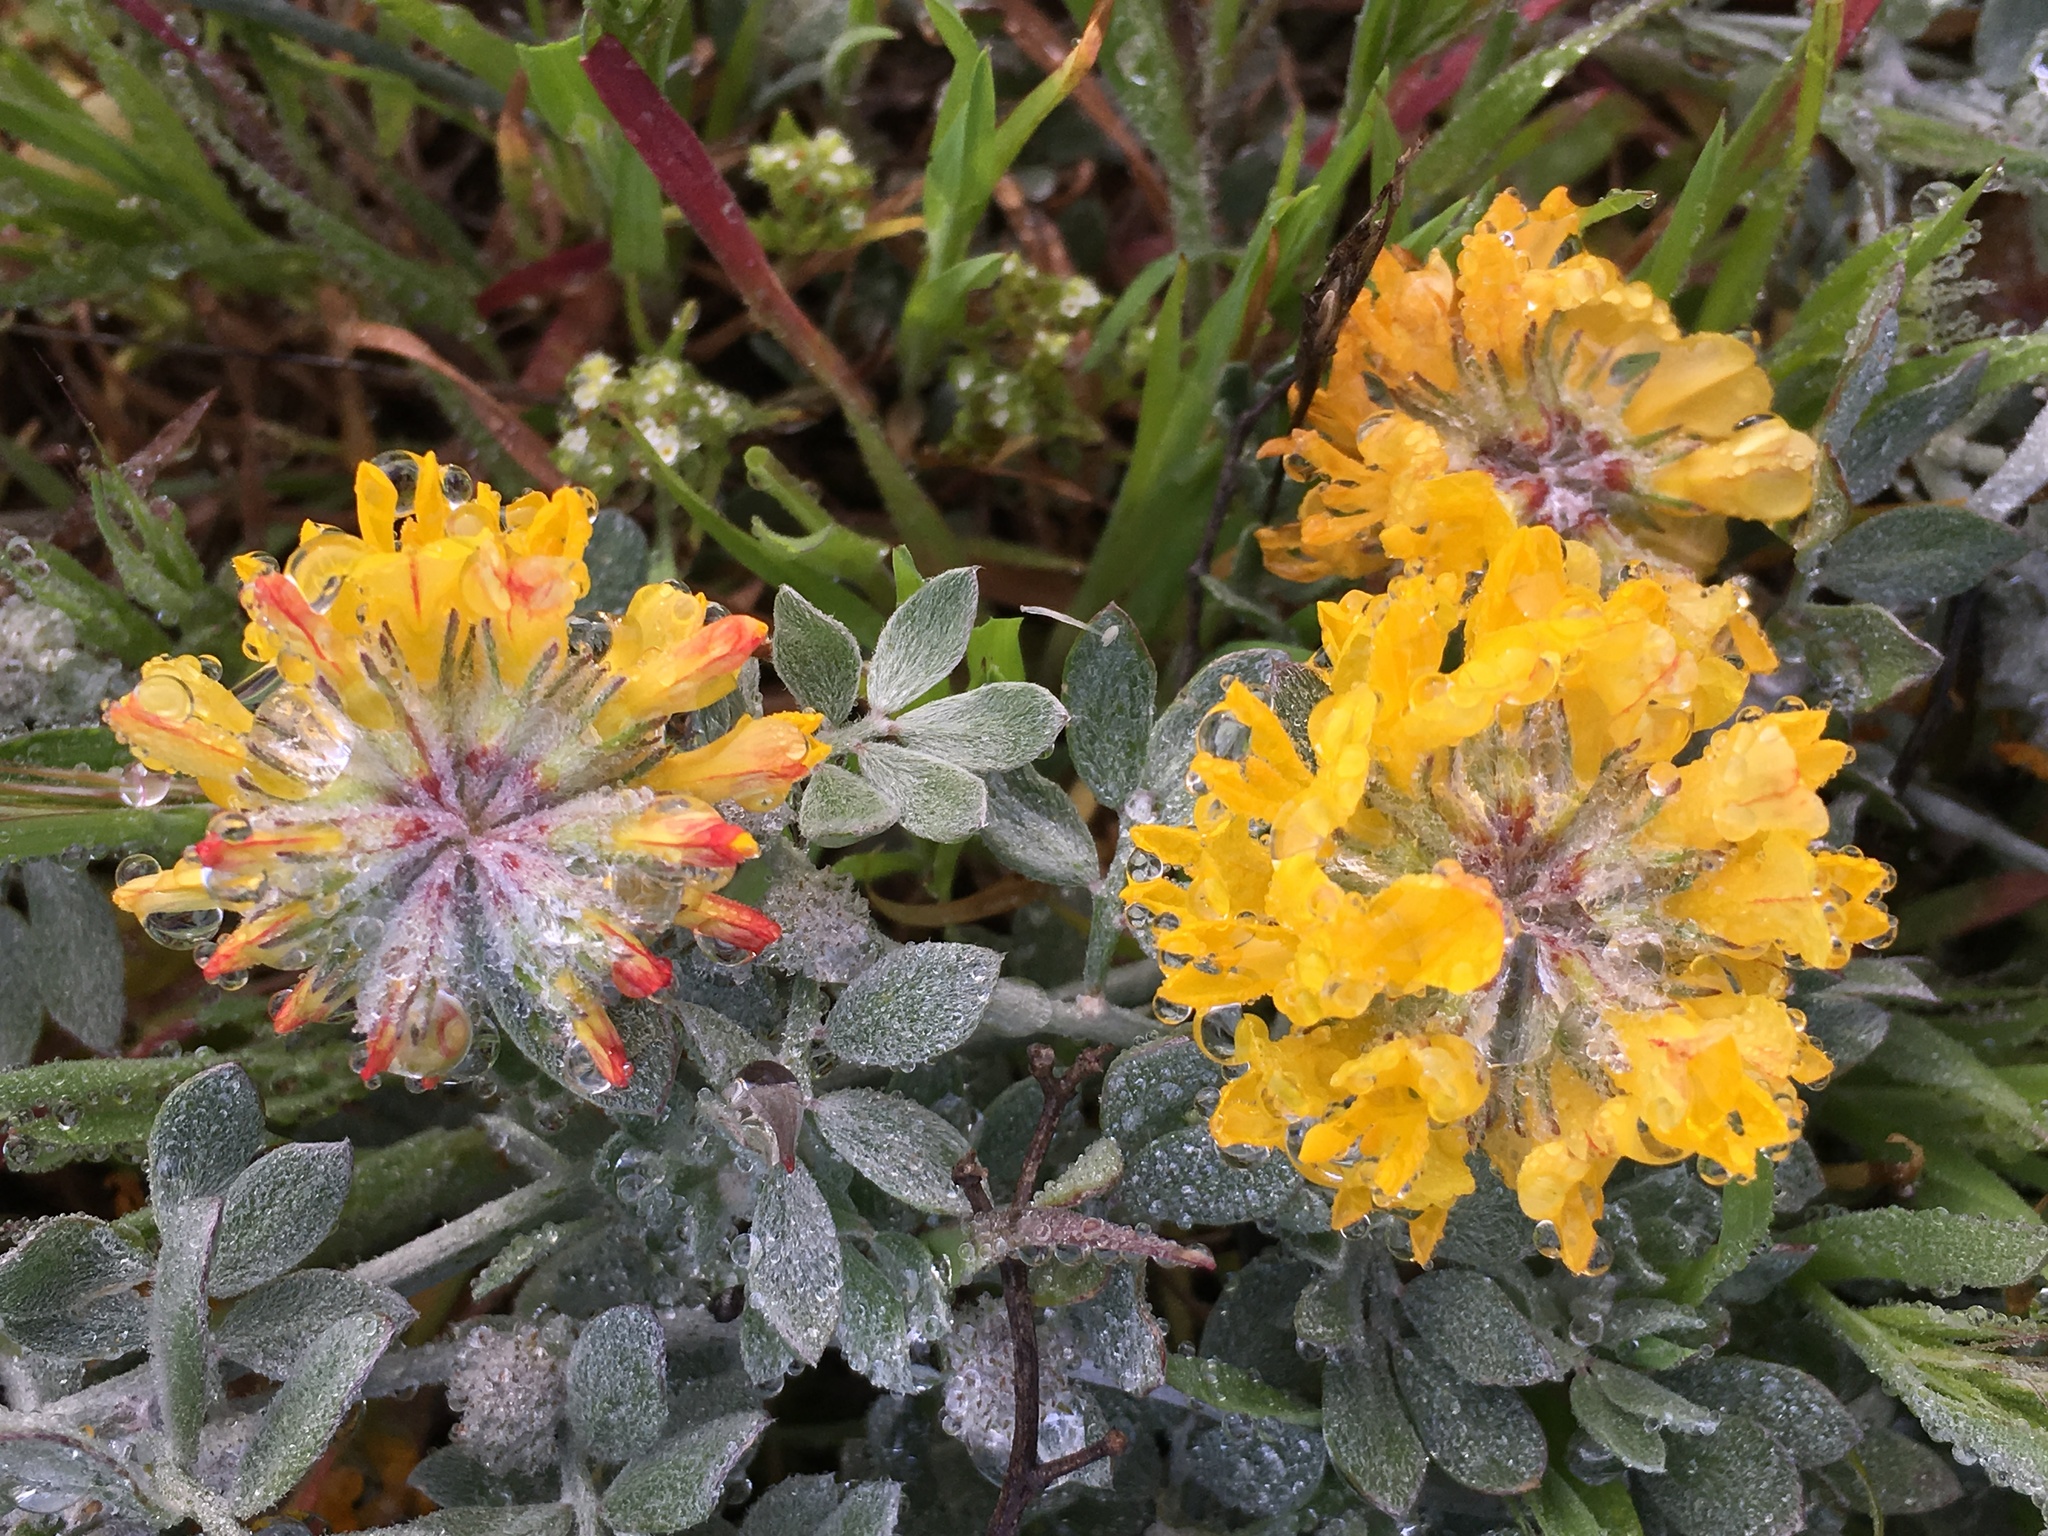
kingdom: Plantae
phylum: Tracheophyta
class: Magnoliopsida
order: Fabales
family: Fabaceae
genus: Acmispon
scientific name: Acmispon argophyllus
